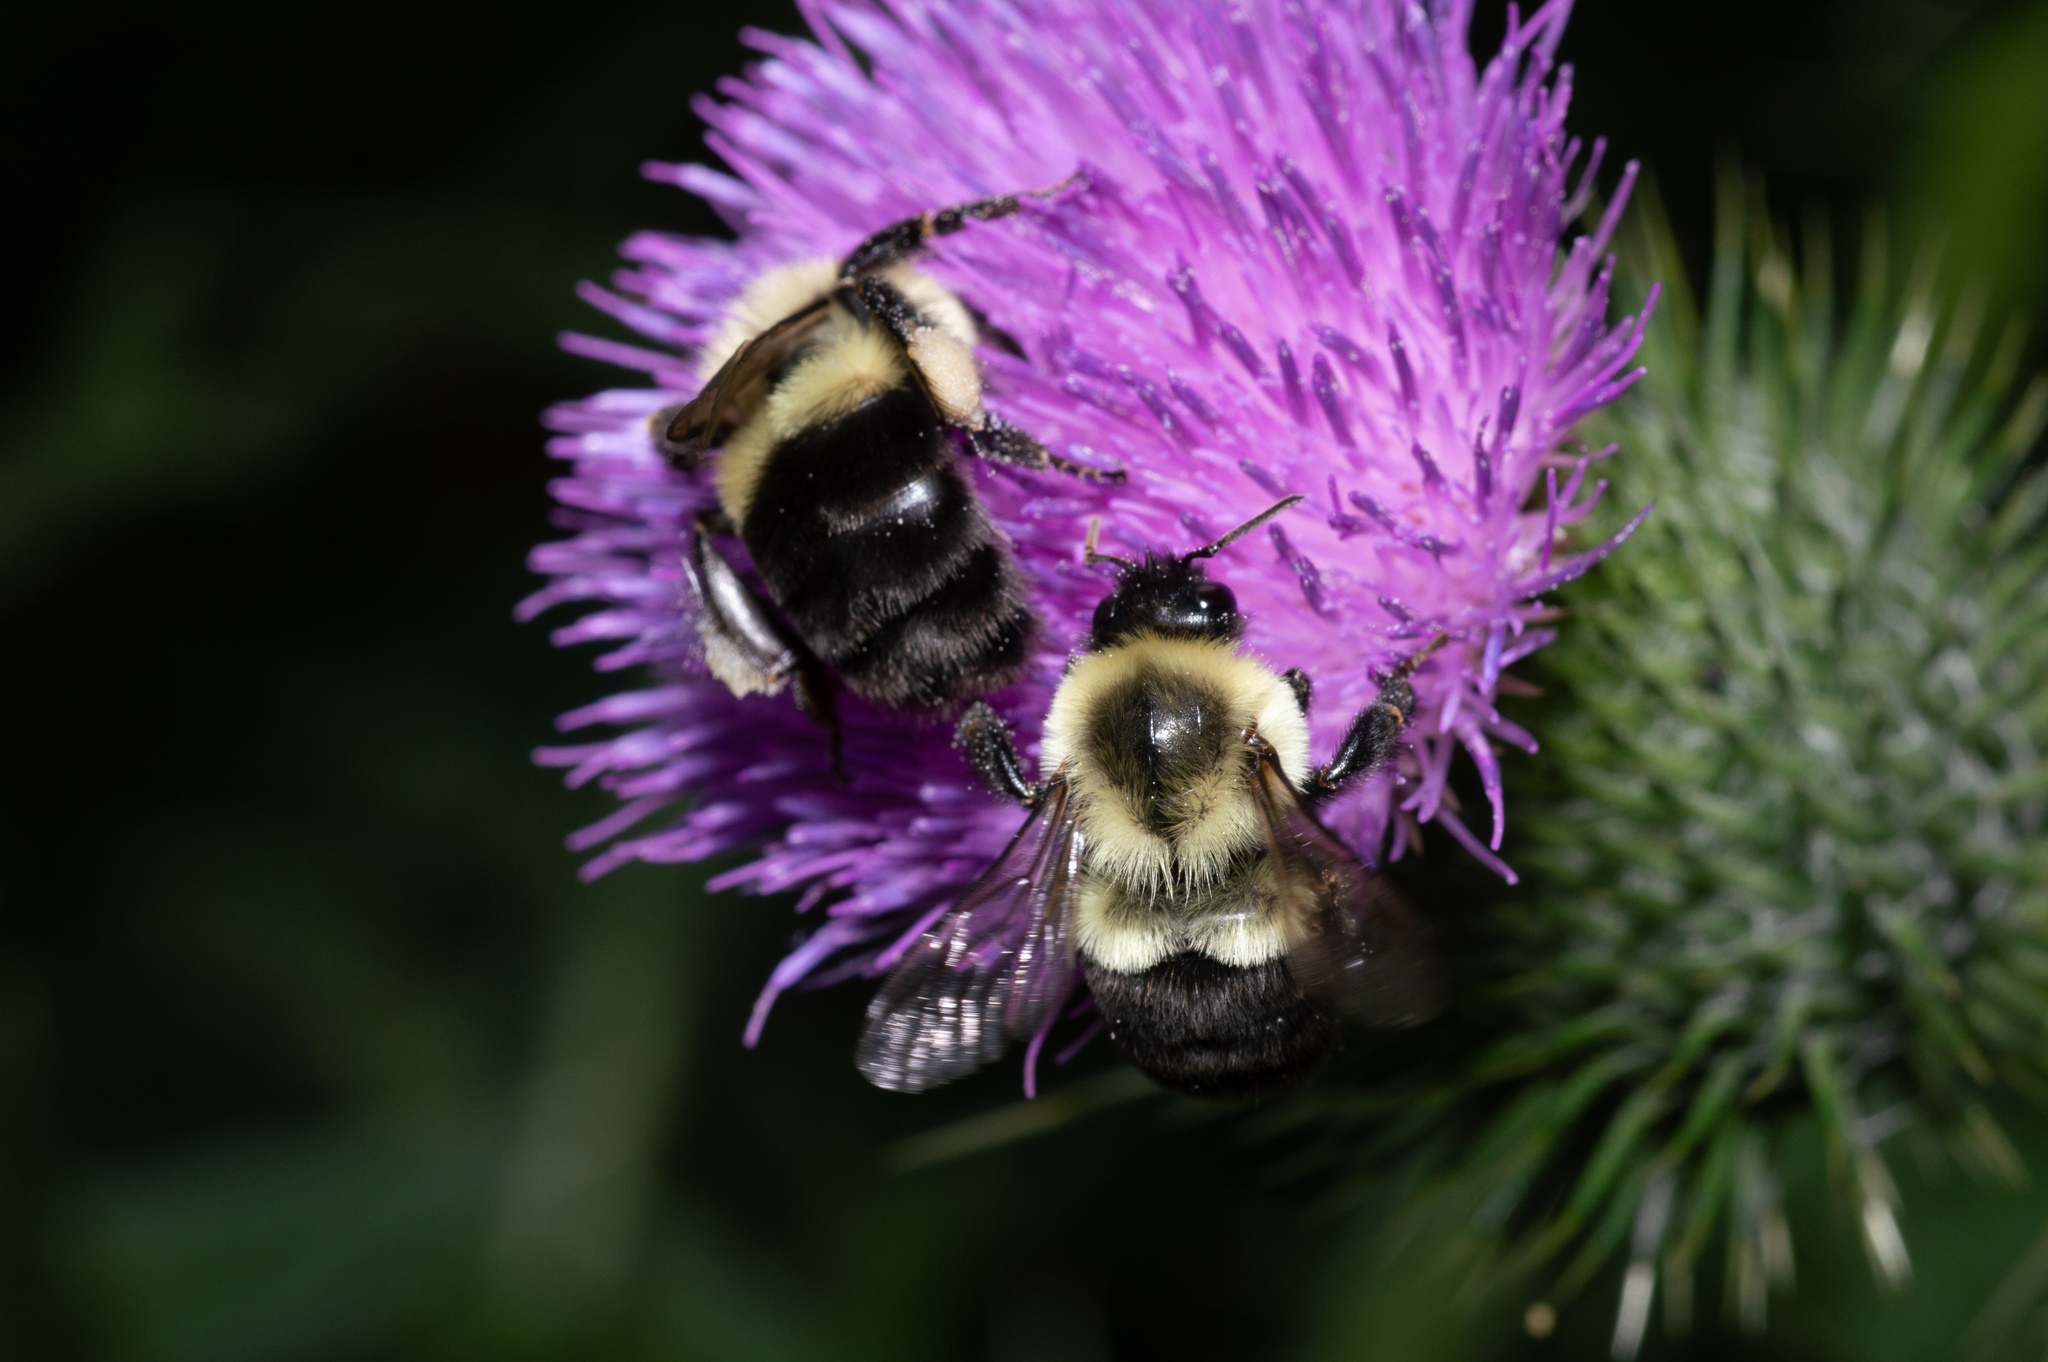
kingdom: Animalia
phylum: Arthropoda
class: Insecta
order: Hymenoptera
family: Apidae
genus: Bombus
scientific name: Bombus impatiens
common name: Common eastern bumble bee
